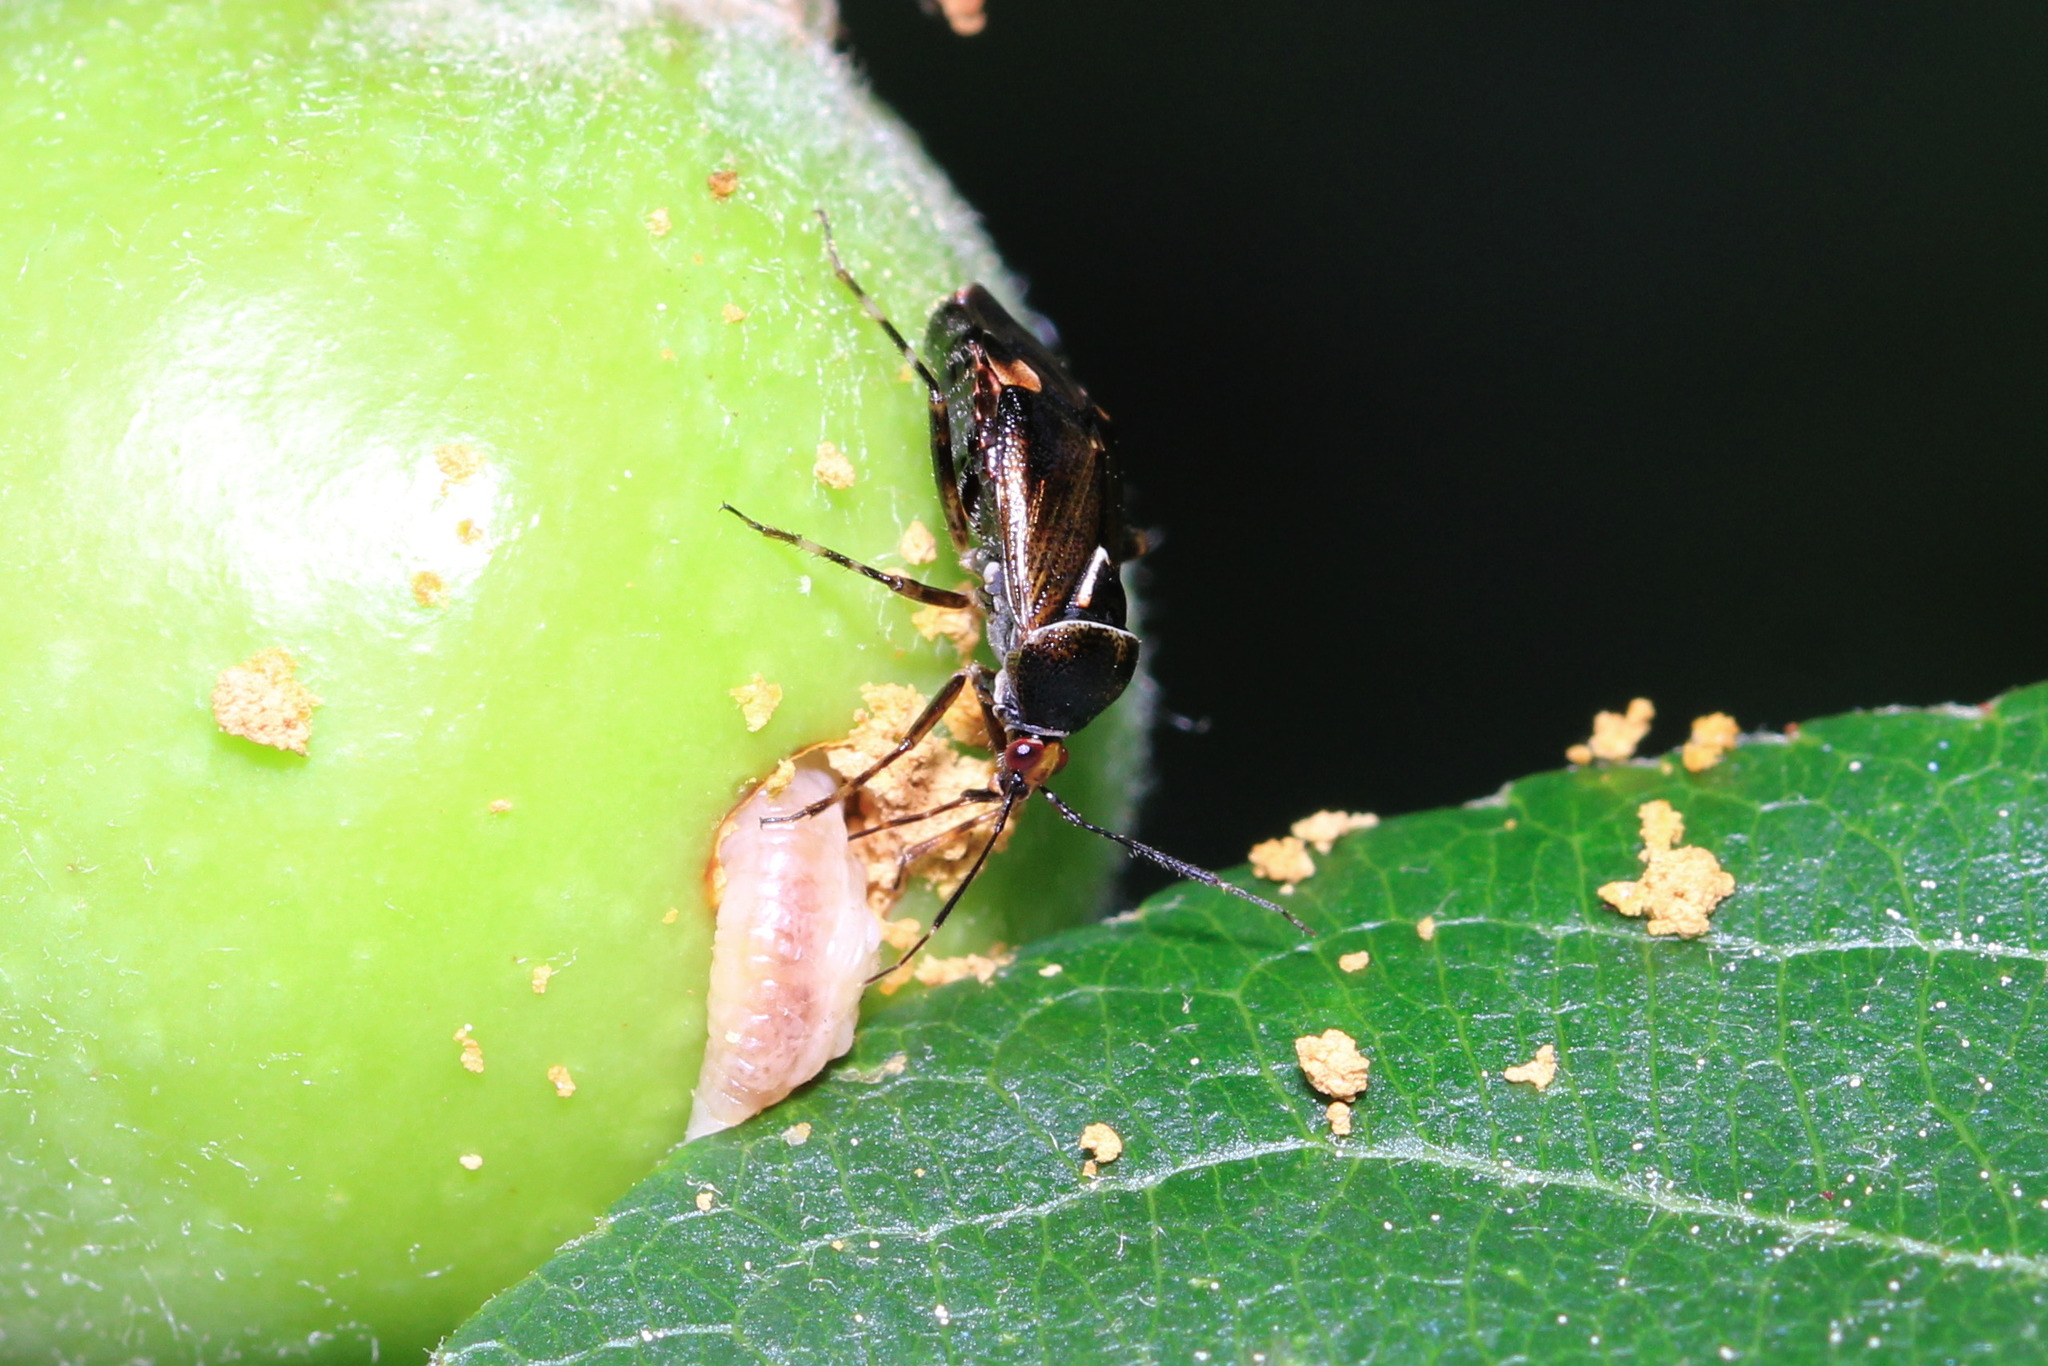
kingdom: Animalia
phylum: Arthropoda
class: Insecta
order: Hemiptera
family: Miridae
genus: Deraeocoris
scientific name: Deraeocoris flavilinea
